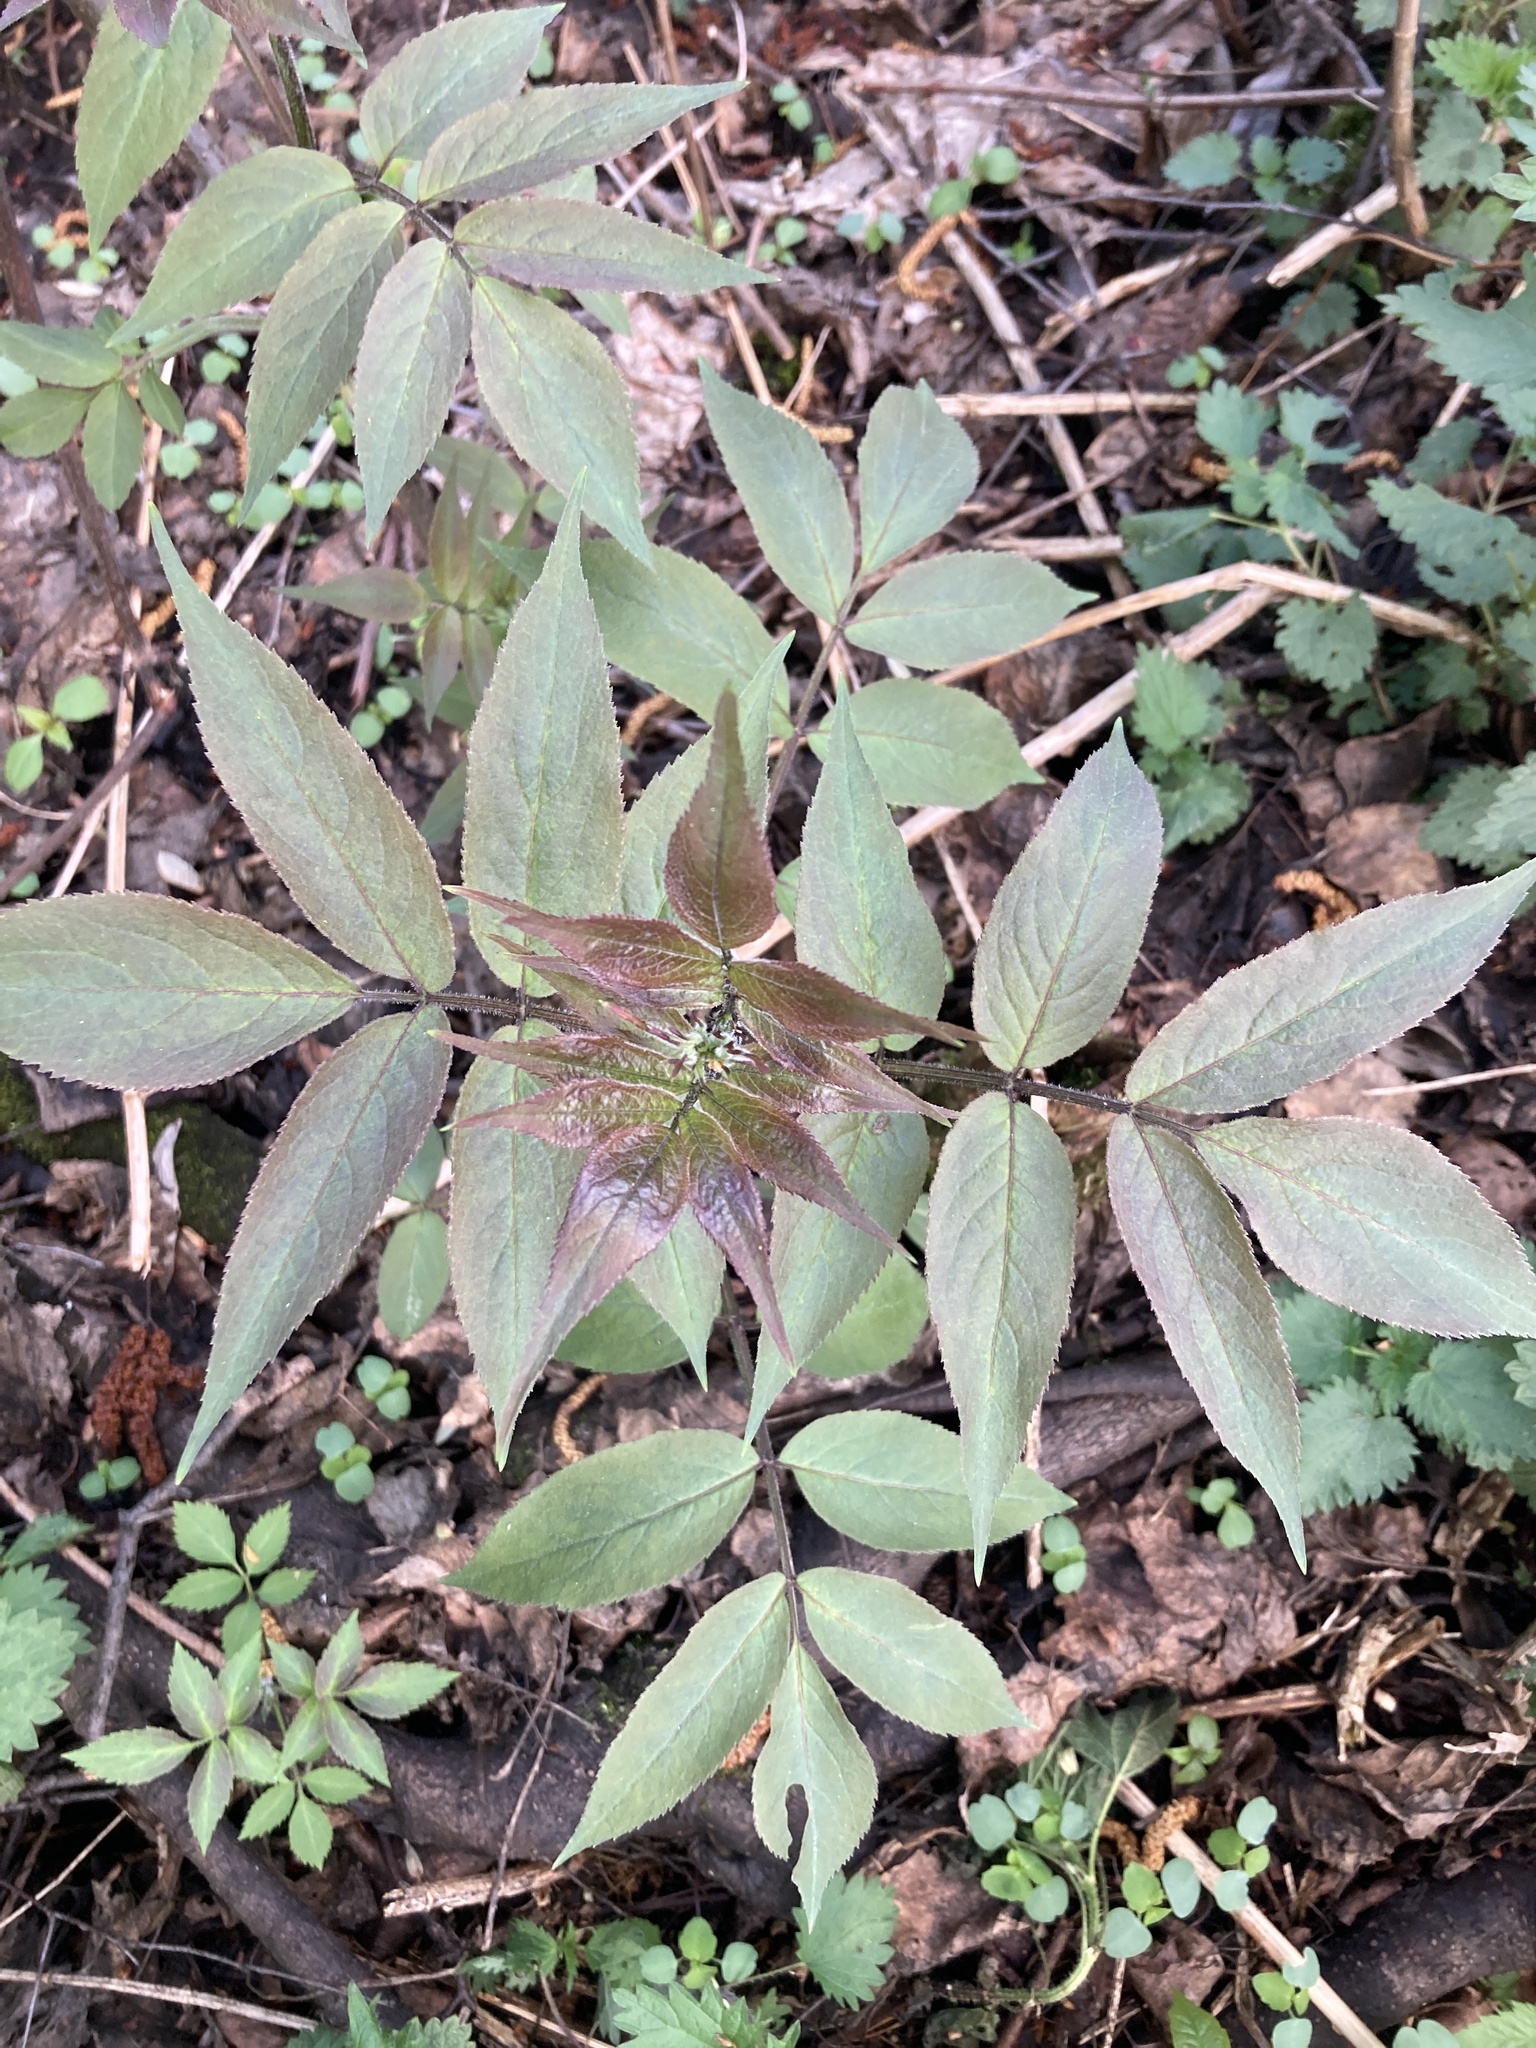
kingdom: Plantae
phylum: Tracheophyta
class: Magnoliopsida
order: Dipsacales
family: Viburnaceae
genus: Sambucus
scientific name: Sambucus racemosa
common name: Red-berried elder
